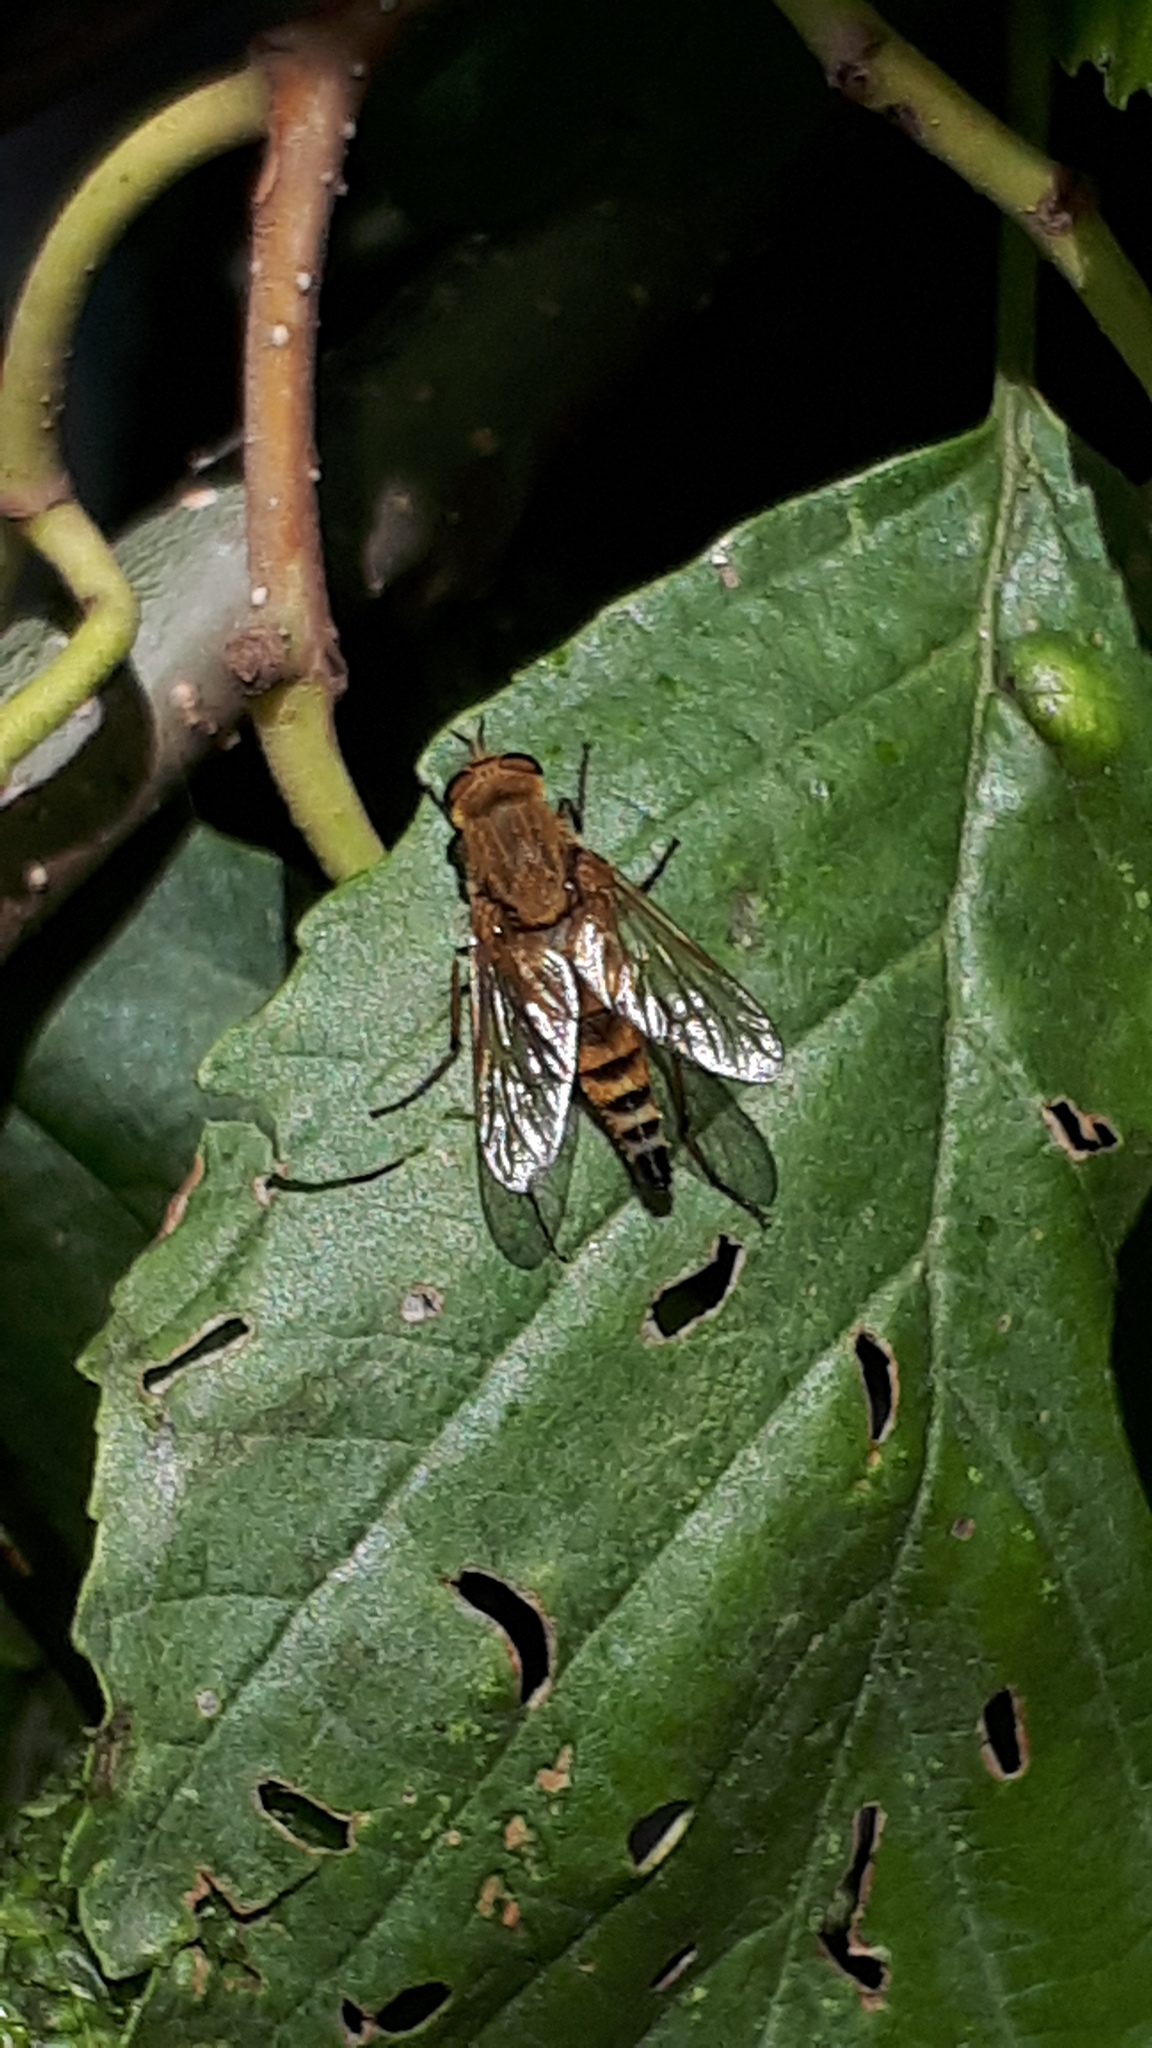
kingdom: Animalia
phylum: Arthropoda
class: Insecta
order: Diptera
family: Therevidae
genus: Thereva
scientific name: Thereva nobilitata
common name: Common stiletto
